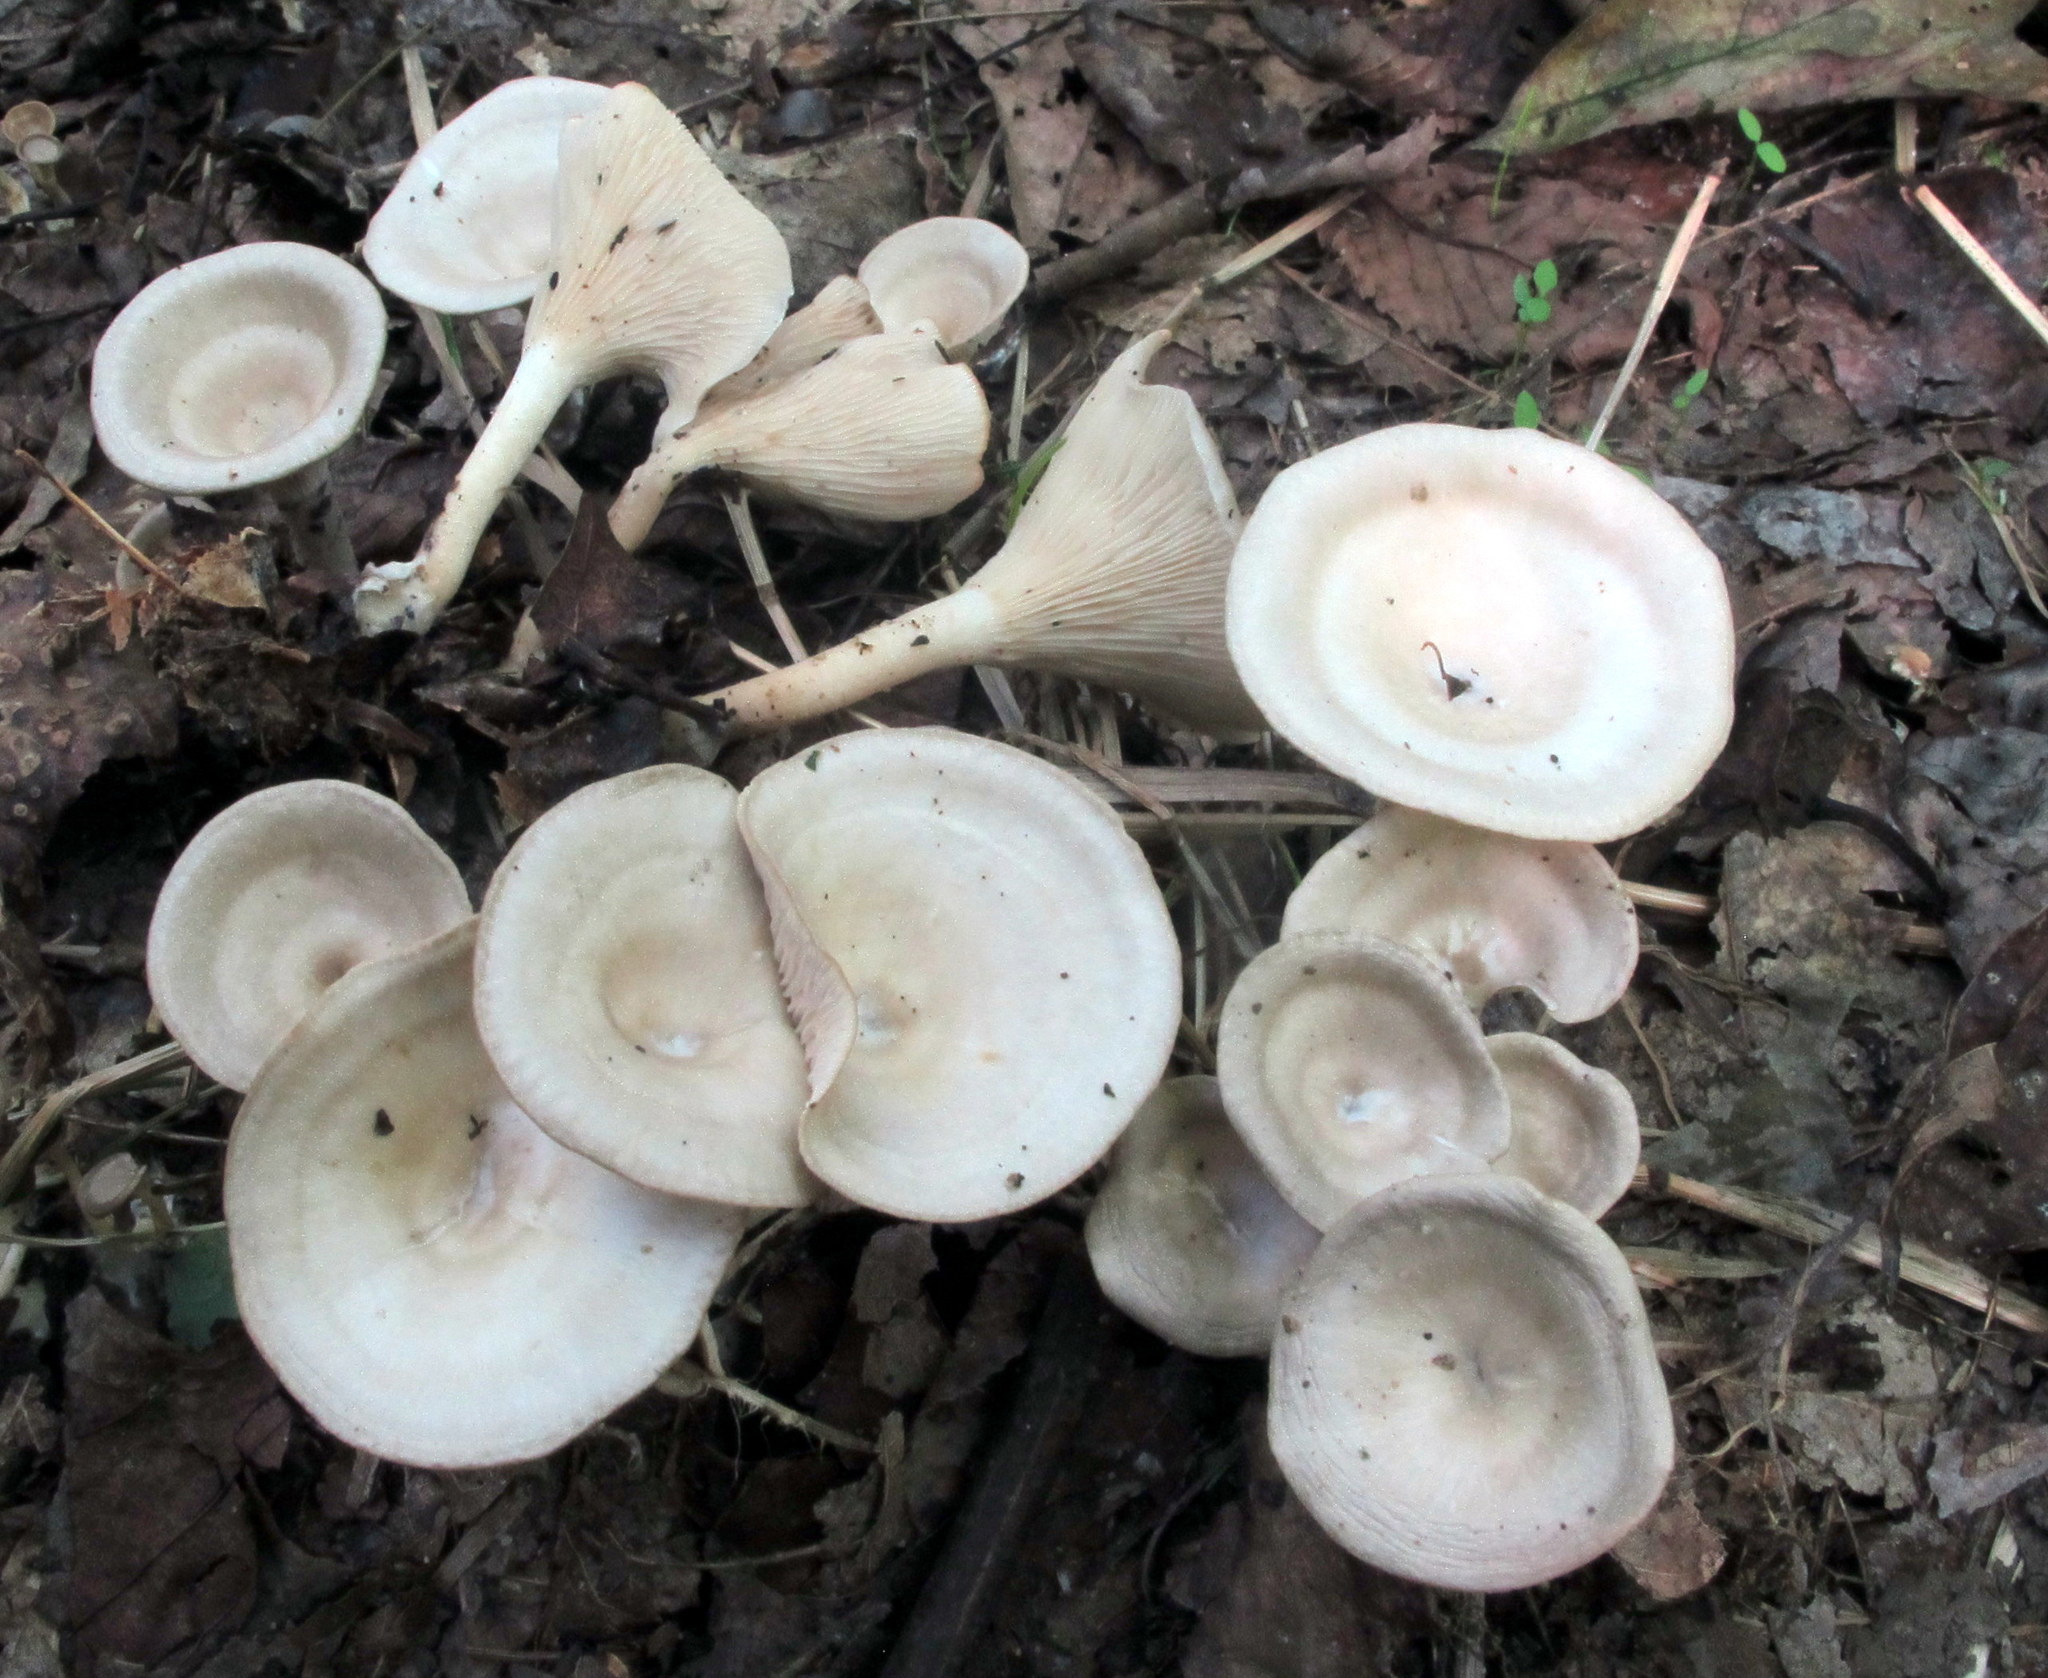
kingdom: Fungi
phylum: Basidiomycota
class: Agaricomycetes
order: Agaricales
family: Tricholomataceae
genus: Singerocybe
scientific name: Singerocybe adirondackensis
